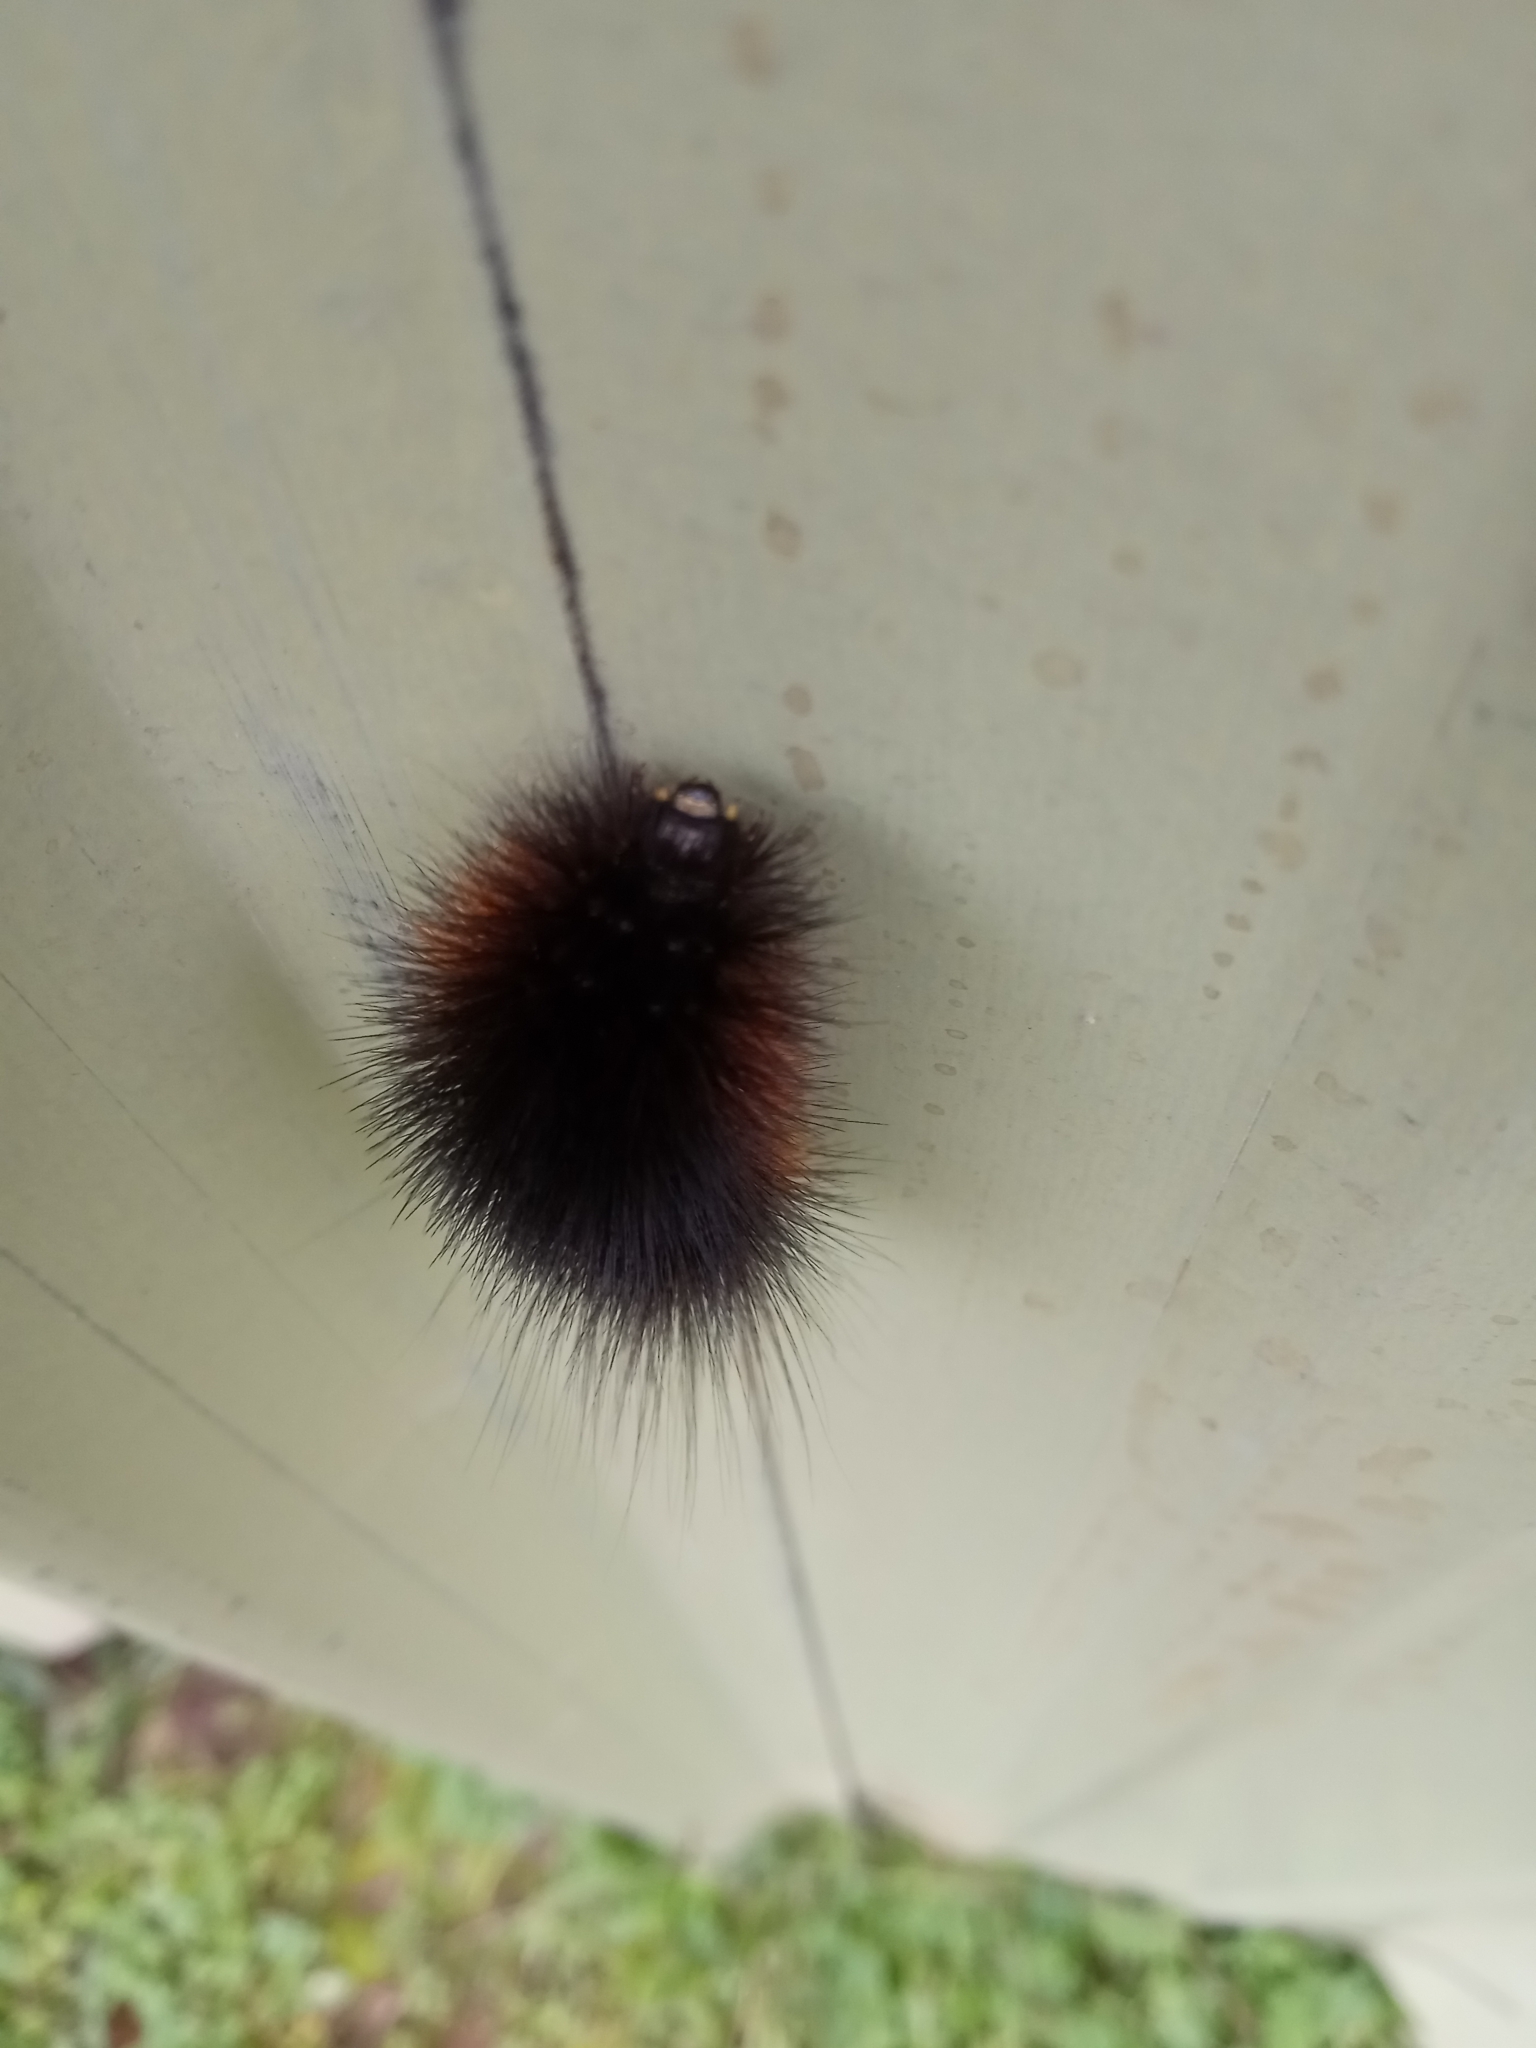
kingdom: Animalia
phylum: Arthropoda
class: Insecta
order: Lepidoptera
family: Erebidae
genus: Estigmene
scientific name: Estigmene acrea
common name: Salt marsh moth
